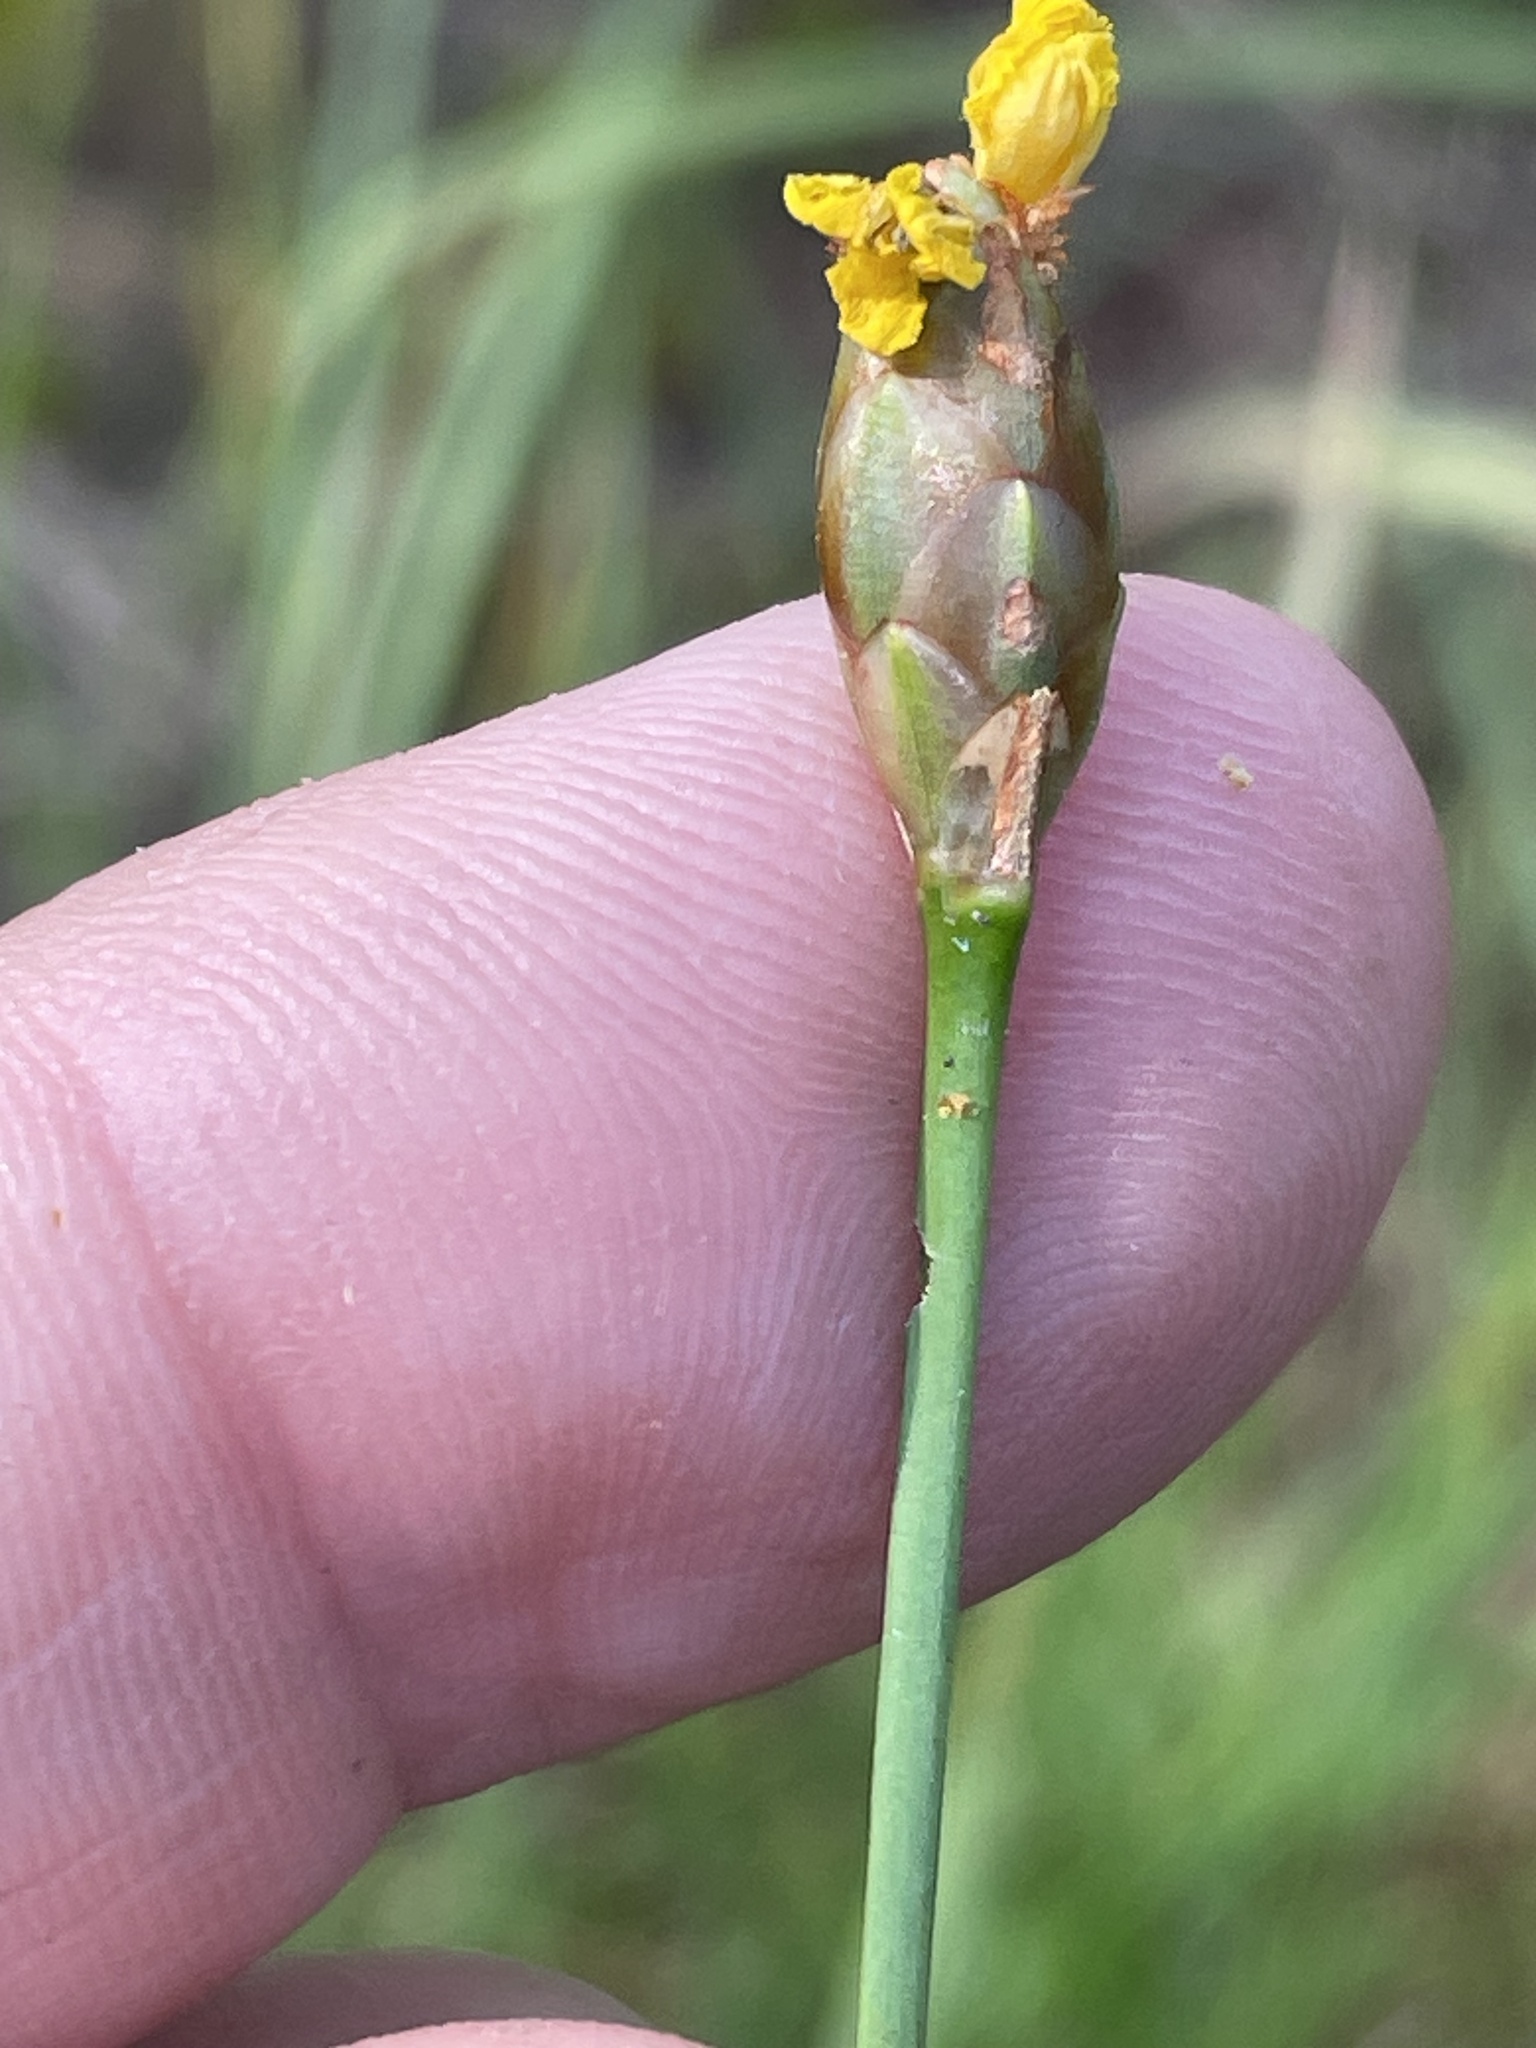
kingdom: Plantae
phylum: Tracheophyta
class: Liliopsida
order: Poales
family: Xyridaceae
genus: Xyris
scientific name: Xyris caroliniana
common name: Carolina yellow-eyed-grass
